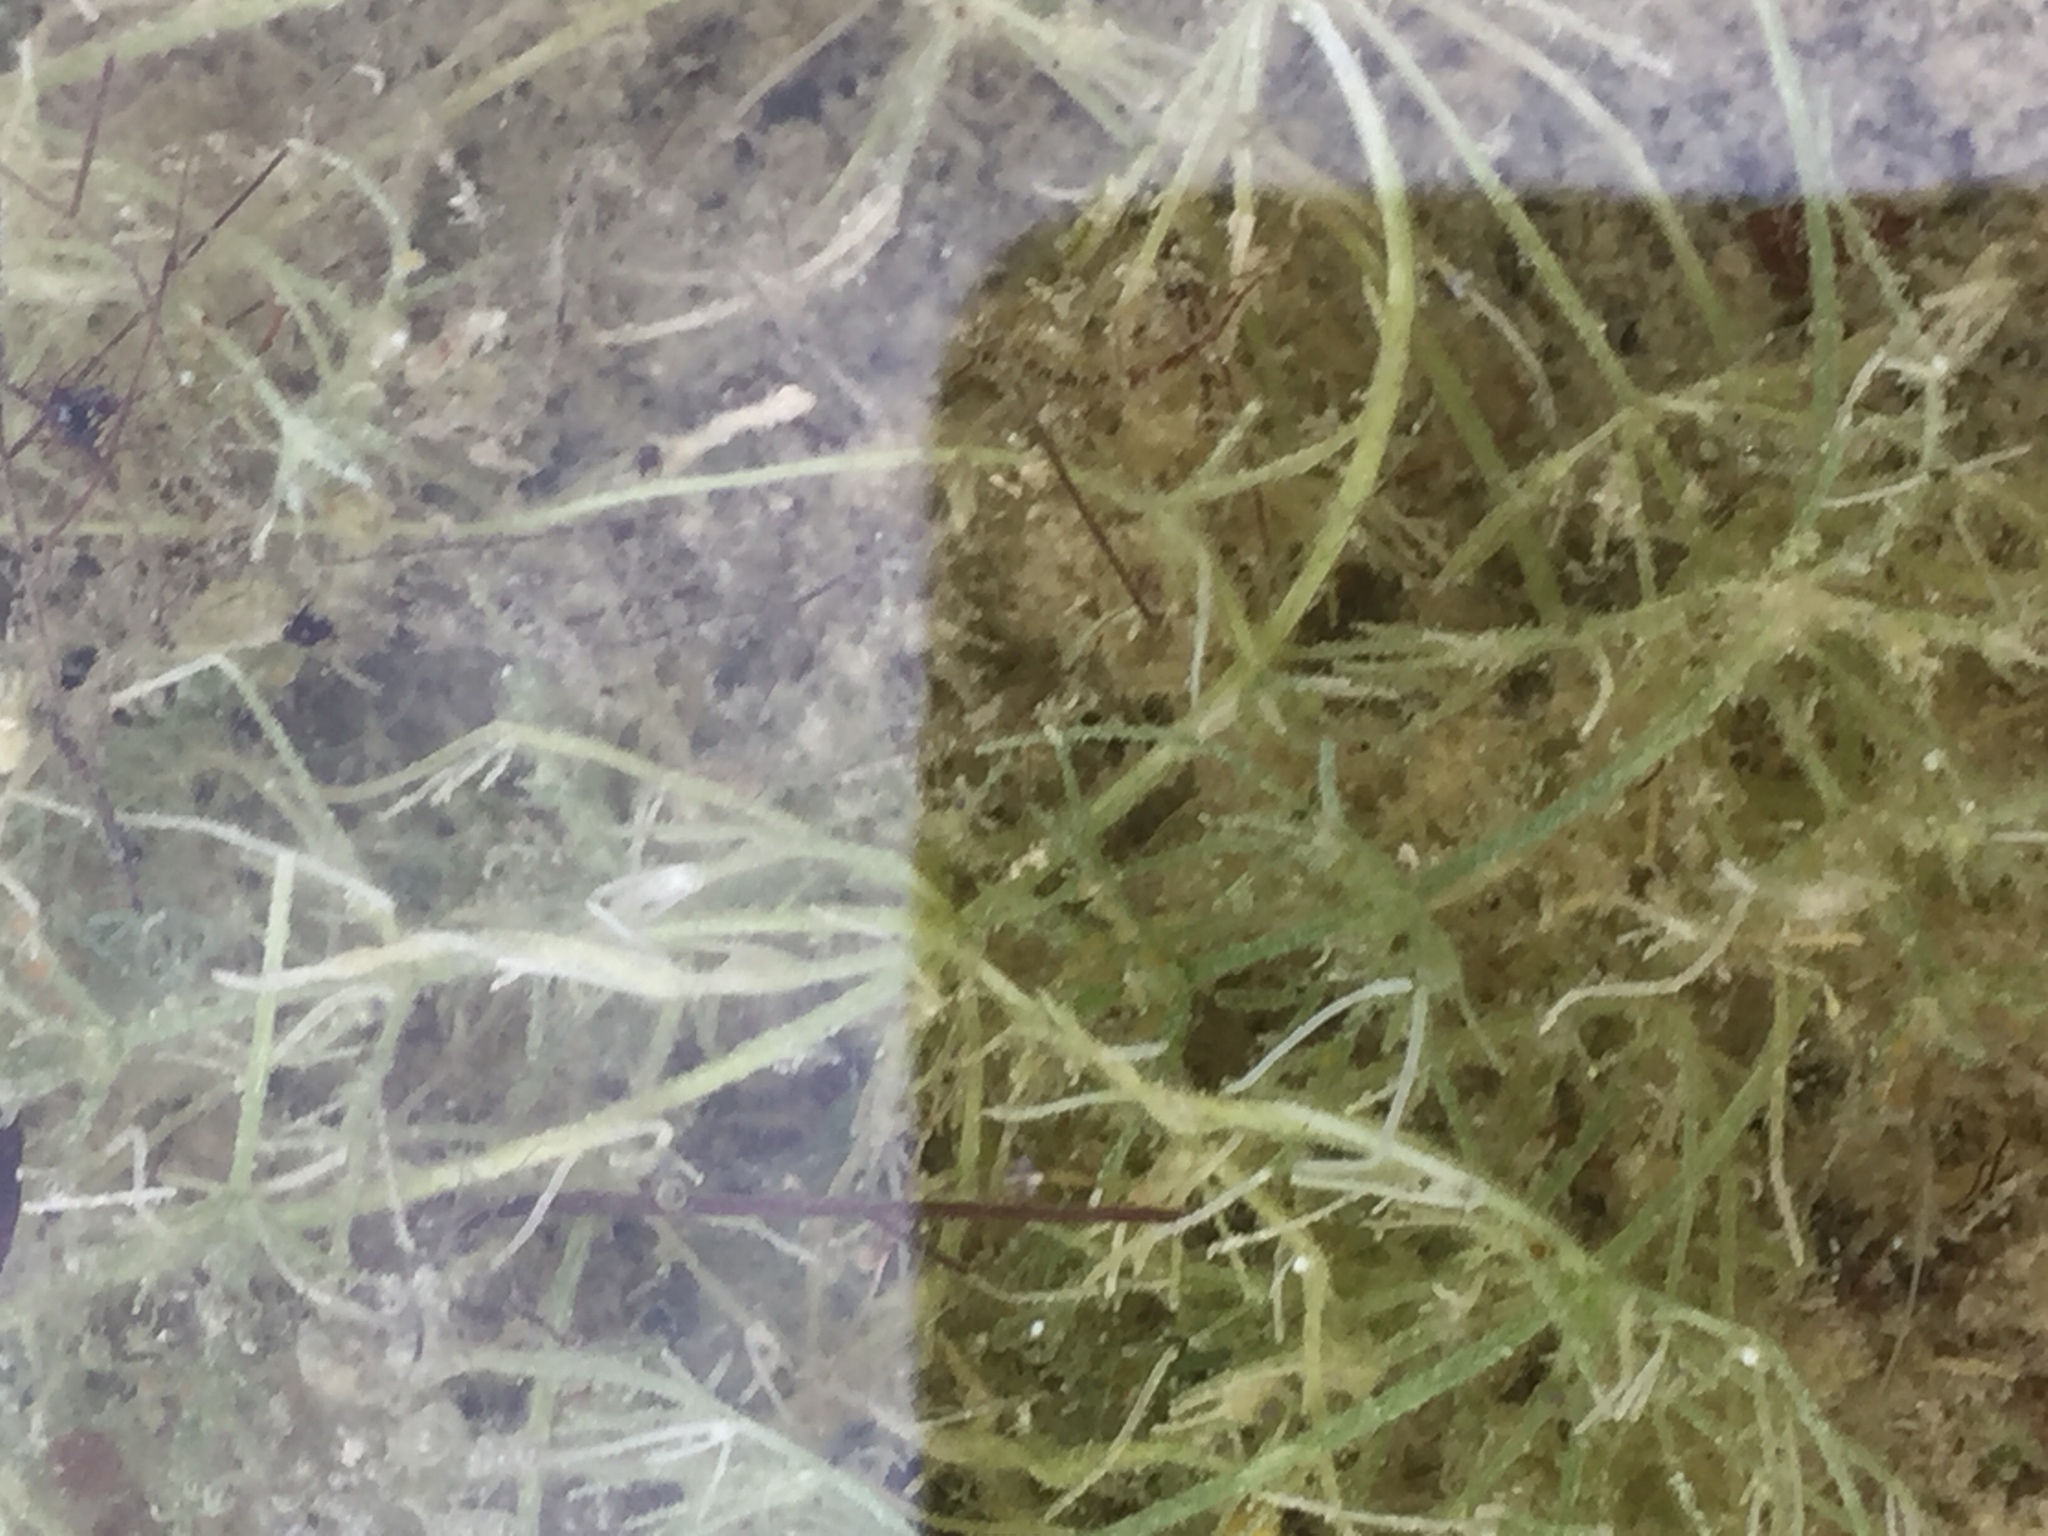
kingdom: Plantae
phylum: Charophyta
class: Charophyceae
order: Charales
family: Characeae
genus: Chara
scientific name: Chara vulgaris
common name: Common stonewort
